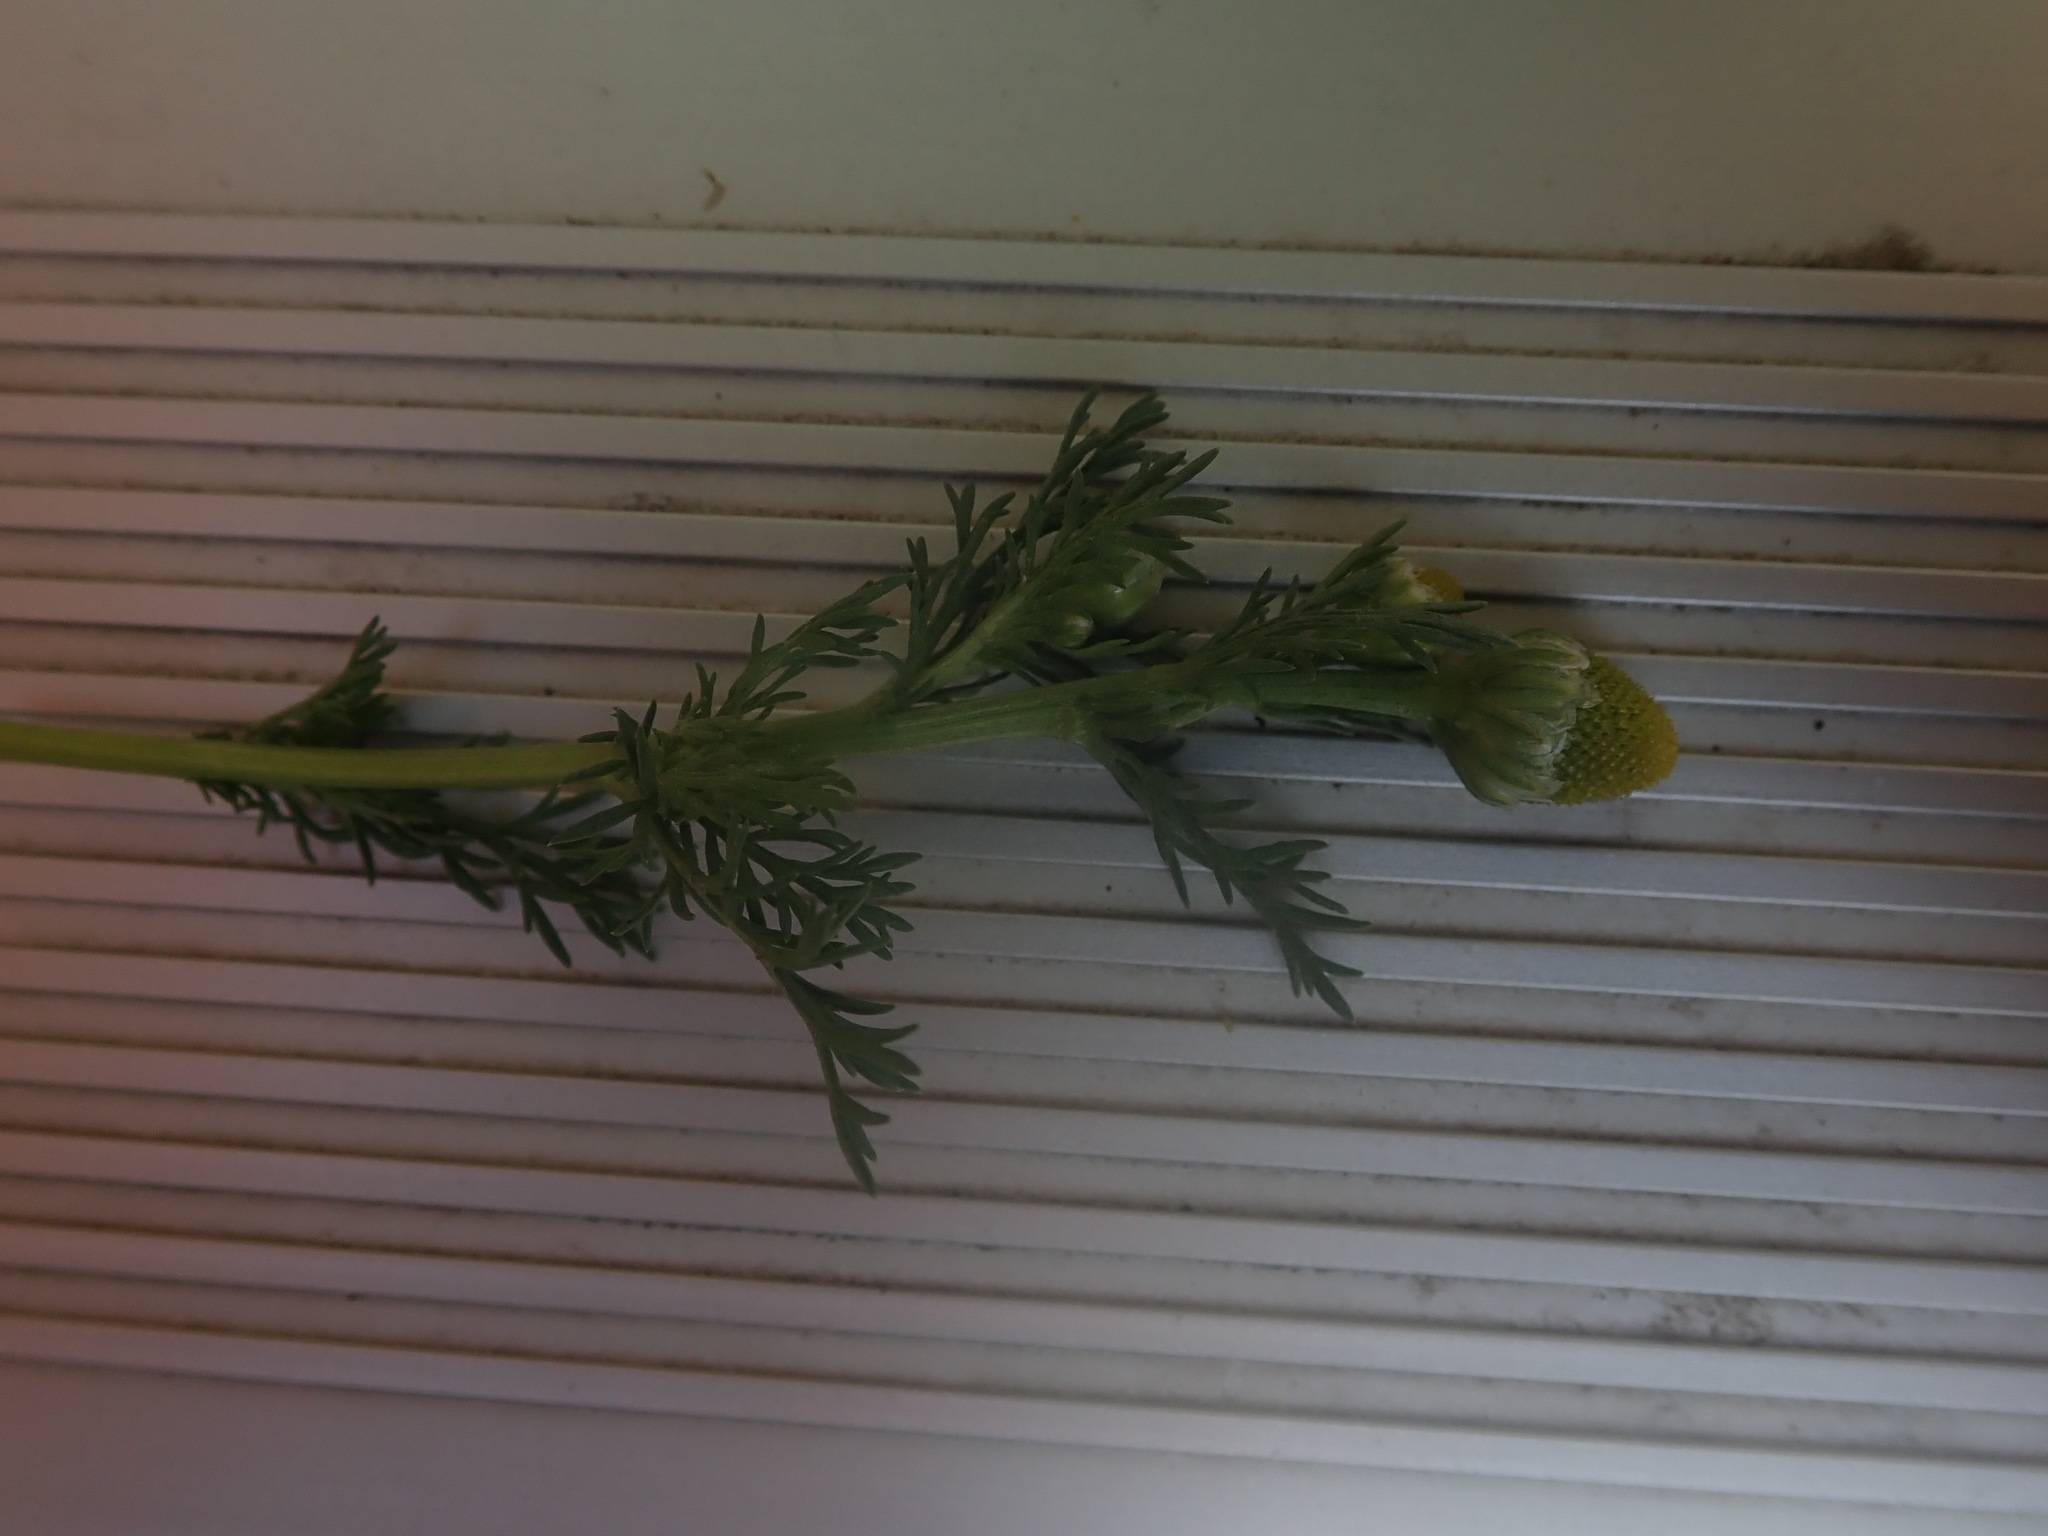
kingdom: Plantae
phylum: Tracheophyta
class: Magnoliopsida
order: Asterales
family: Asteraceae
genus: Matricaria
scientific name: Matricaria discoidea
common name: Disc mayweed
